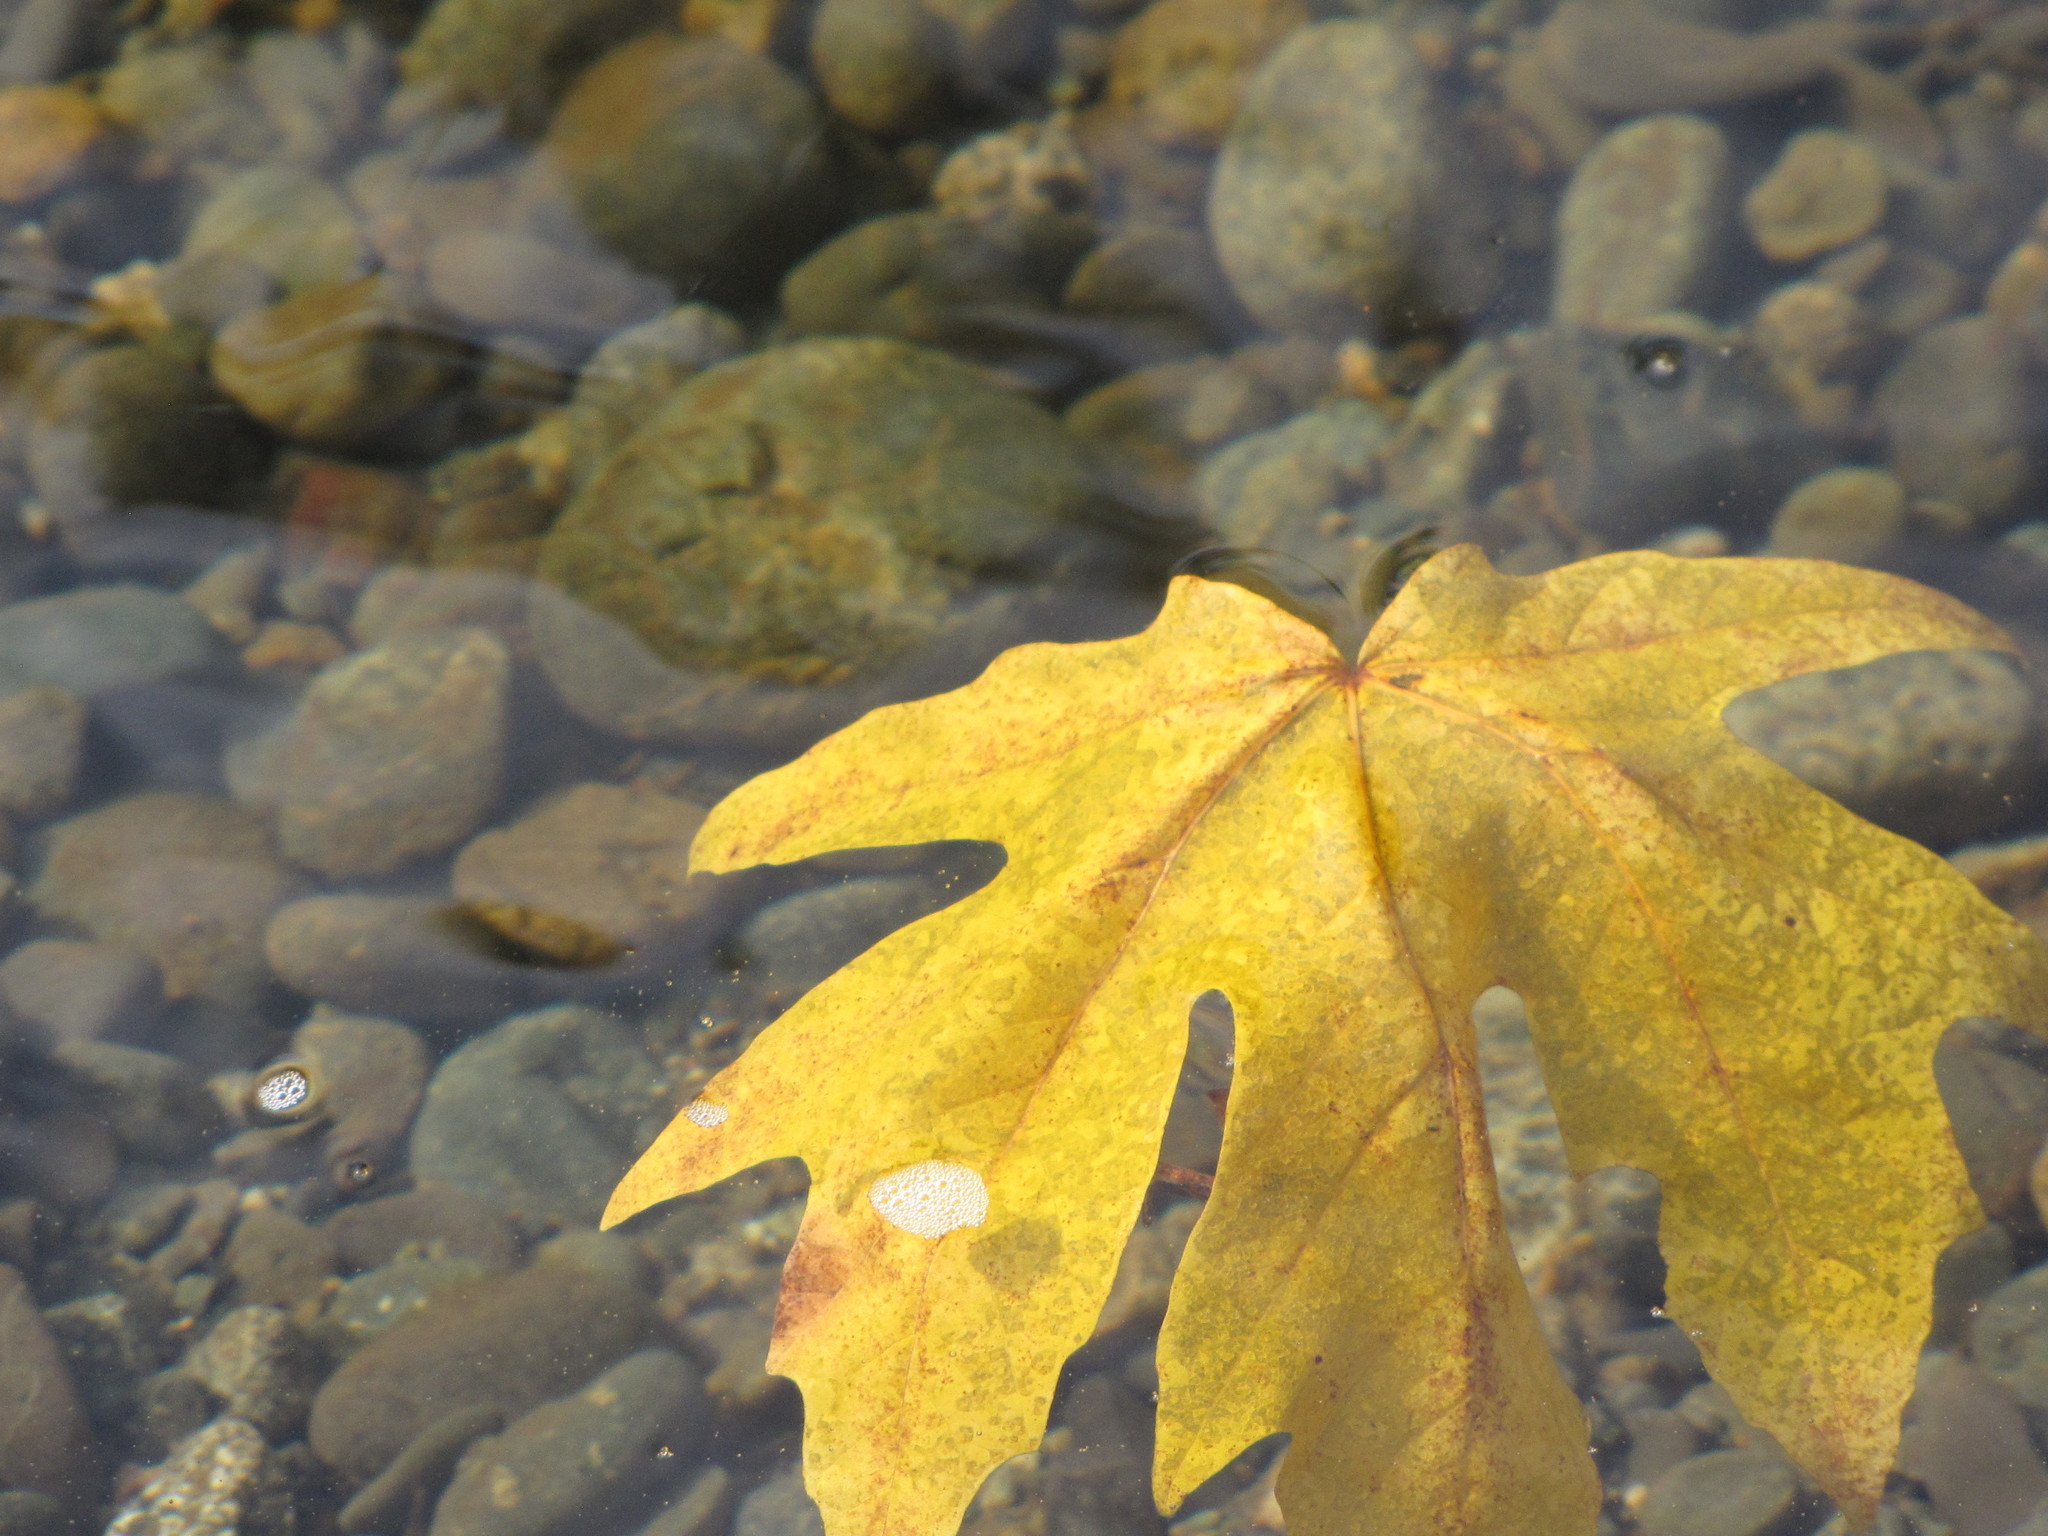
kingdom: Plantae
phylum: Tracheophyta
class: Magnoliopsida
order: Sapindales
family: Sapindaceae
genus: Acer
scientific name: Acer macrophyllum
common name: Oregon maple
